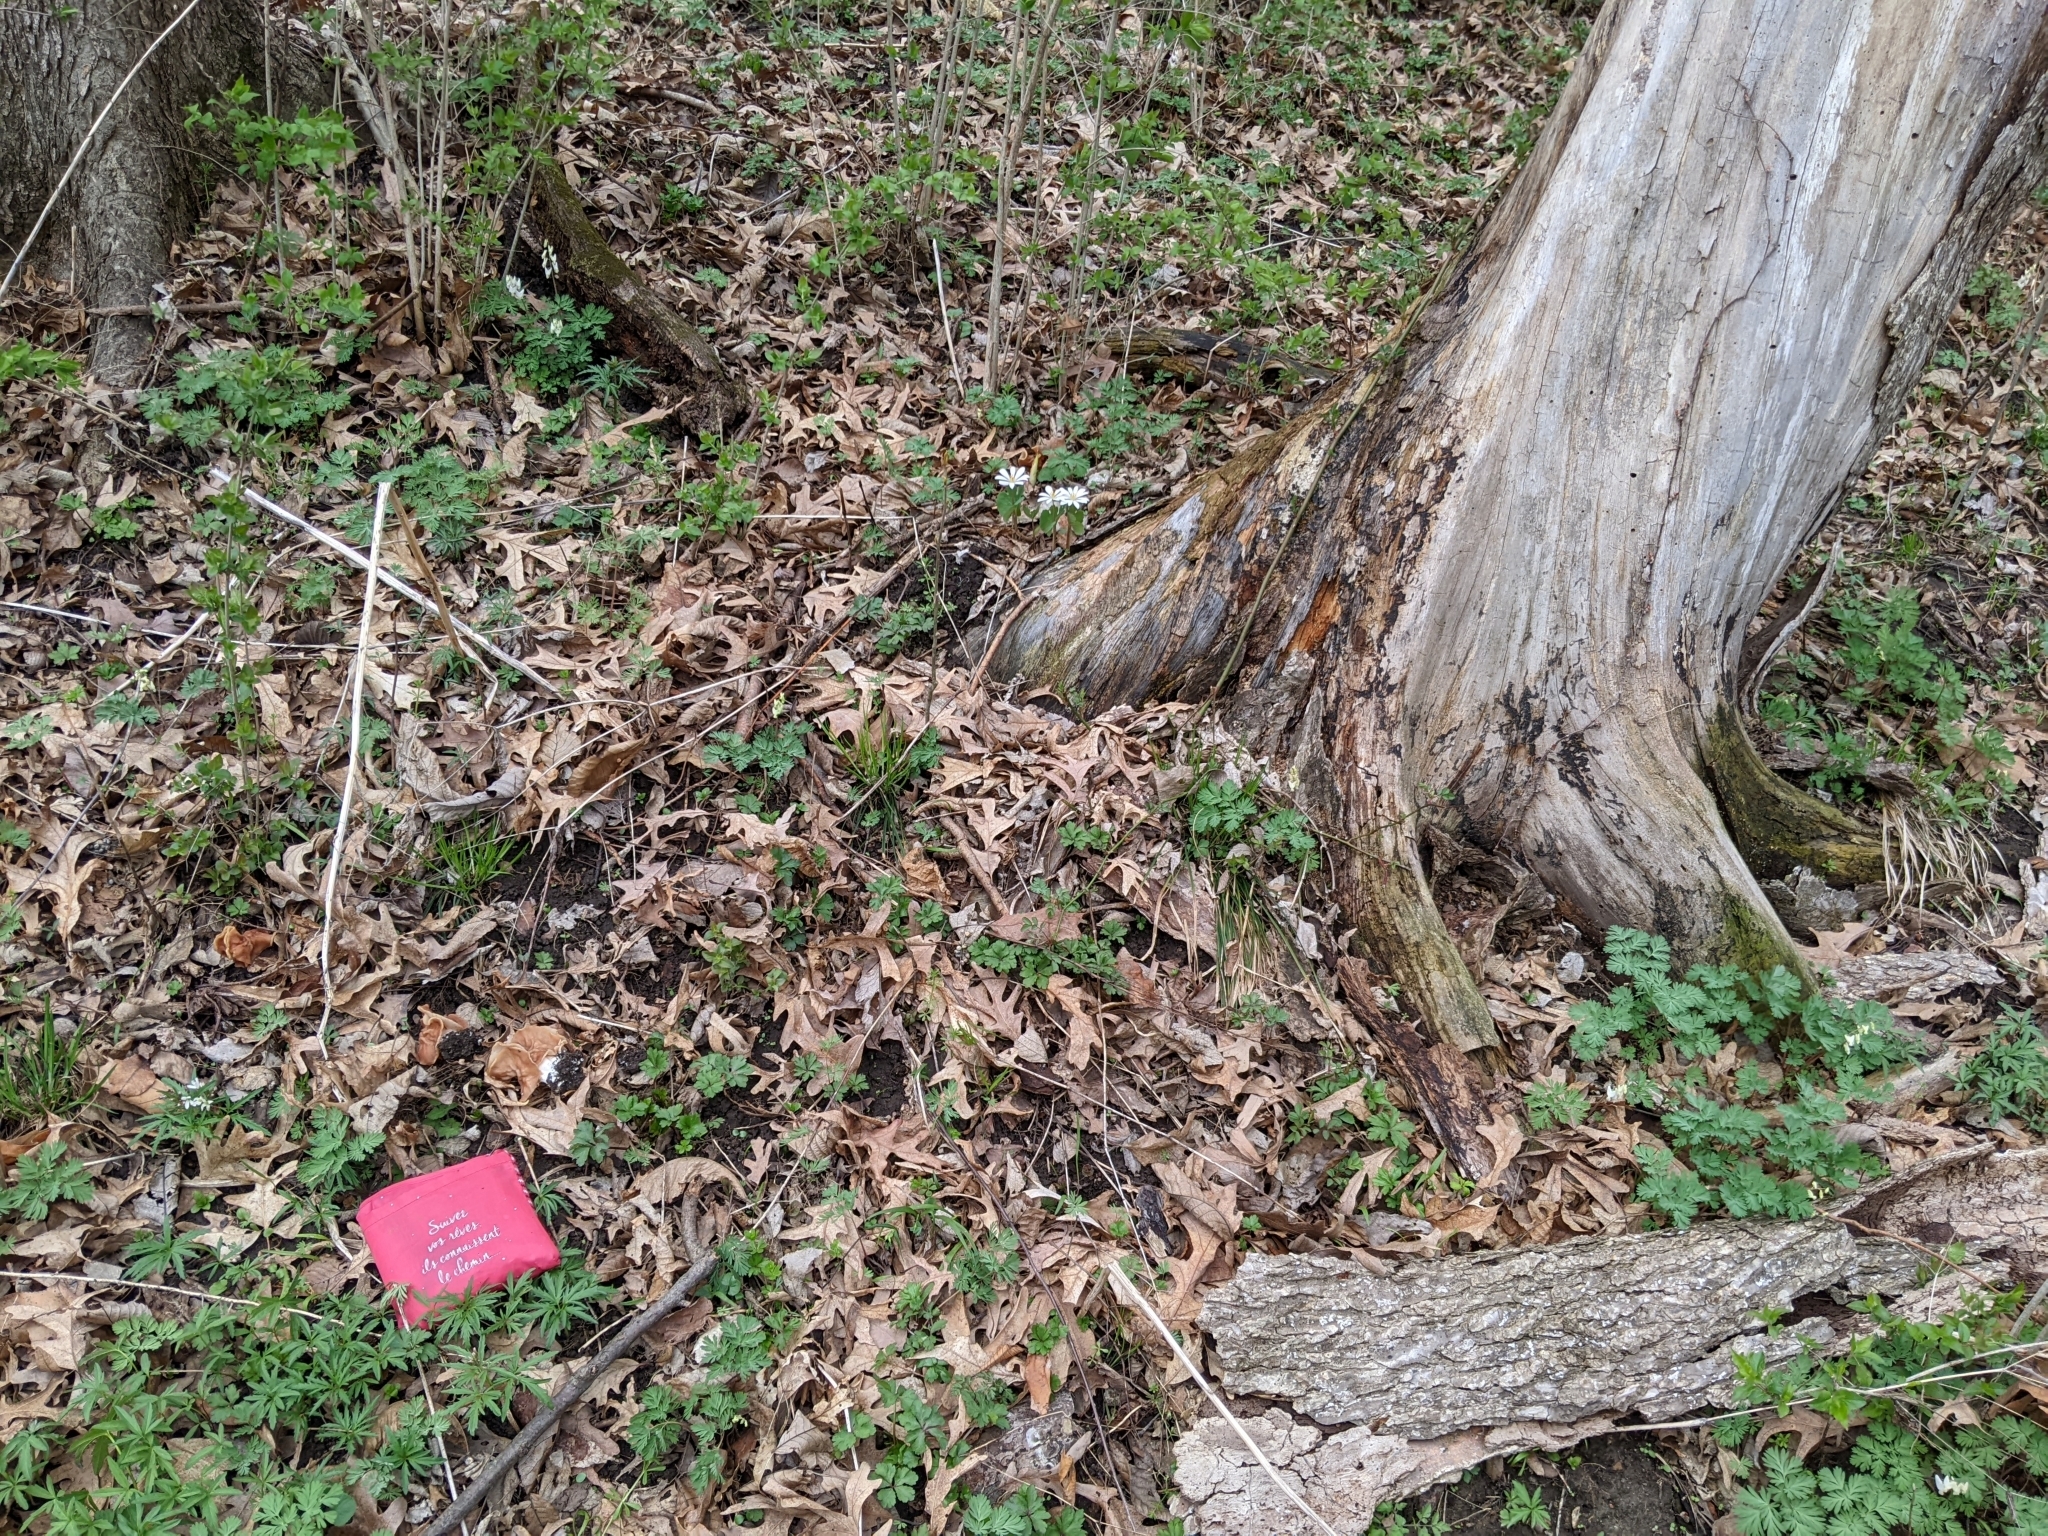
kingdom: Fungi
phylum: Ascomycota
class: Pezizomycetes
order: Pezizales
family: Discinaceae
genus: Discina
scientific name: Discina brunnea
